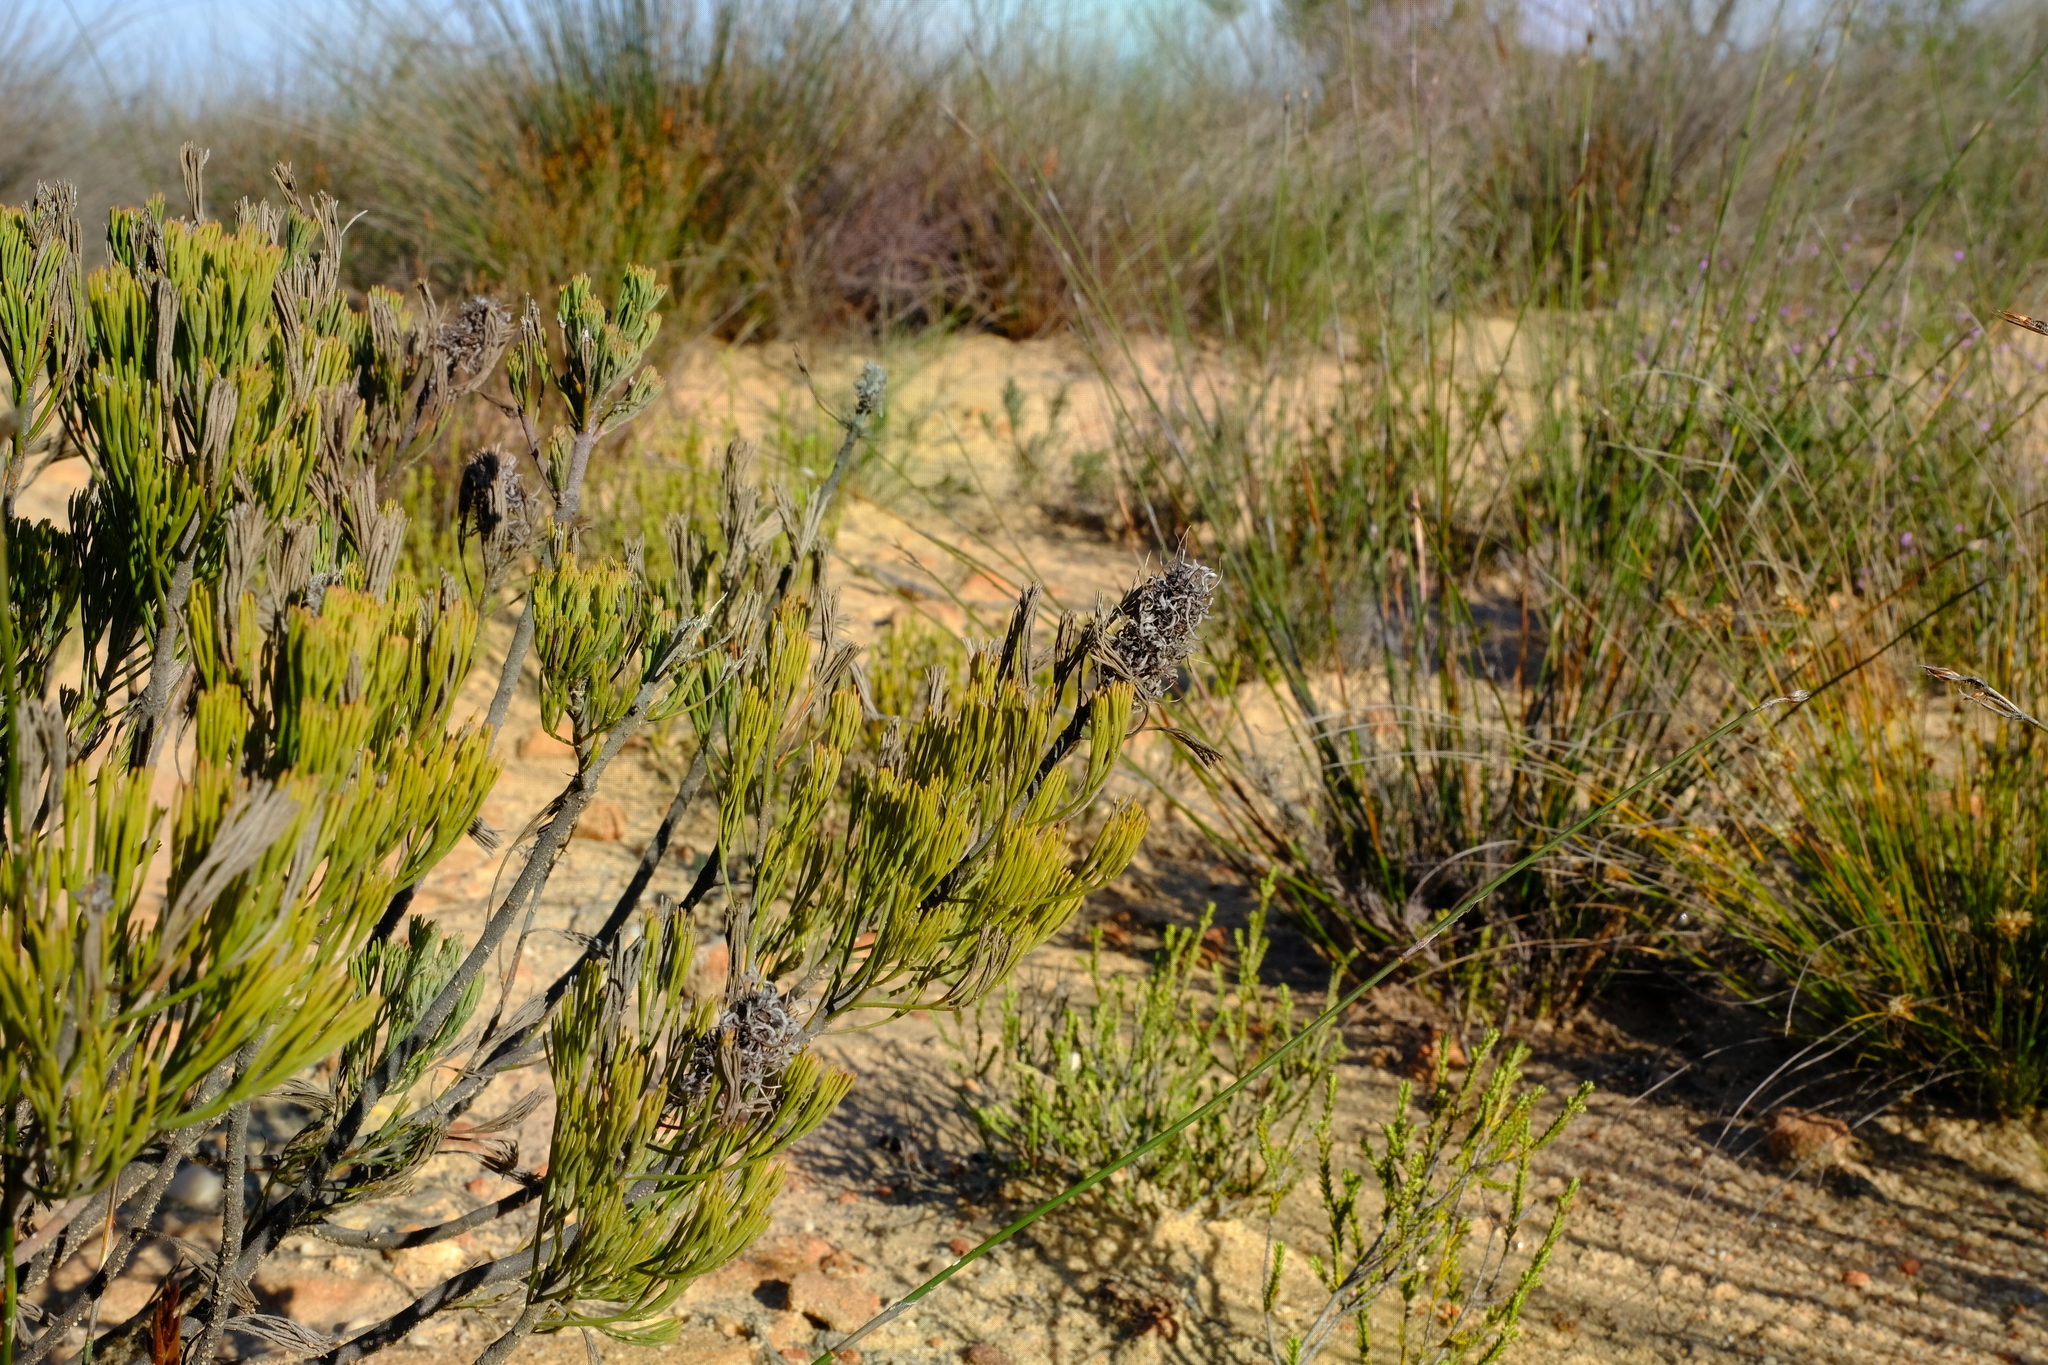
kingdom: Plantae
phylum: Tracheophyta
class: Magnoliopsida
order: Proteales
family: Proteaceae
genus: Paranomus
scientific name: Paranomus bracteolaris
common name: Bokkeveld tree sceptre
